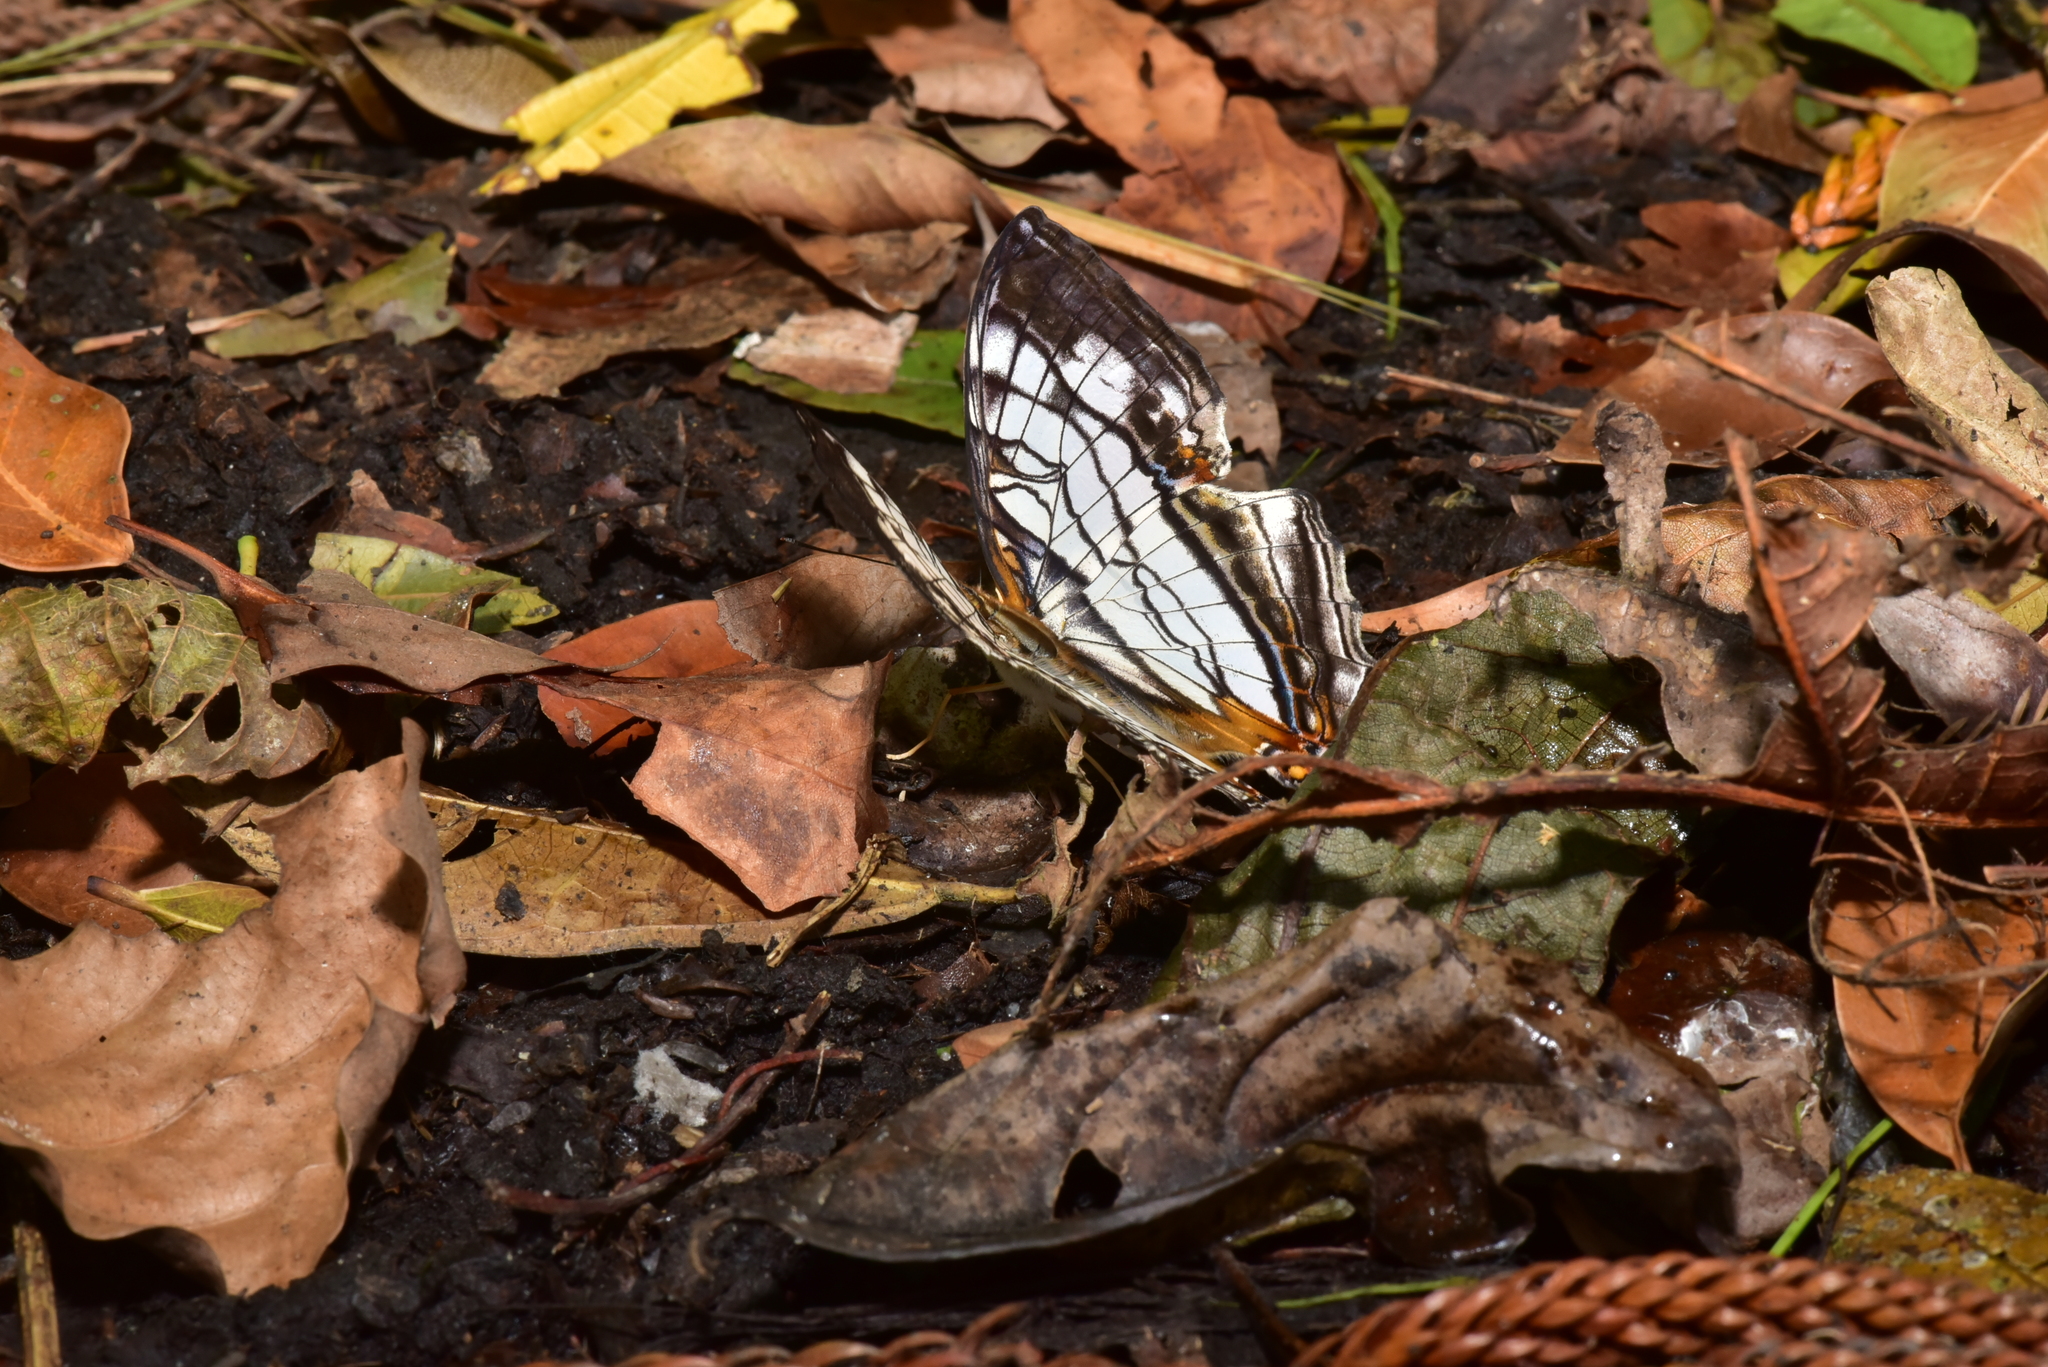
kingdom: Animalia
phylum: Arthropoda
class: Insecta
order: Lepidoptera
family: Nymphalidae
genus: Cyrestis
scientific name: Cyrestis thyodamas
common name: Common mapwing
